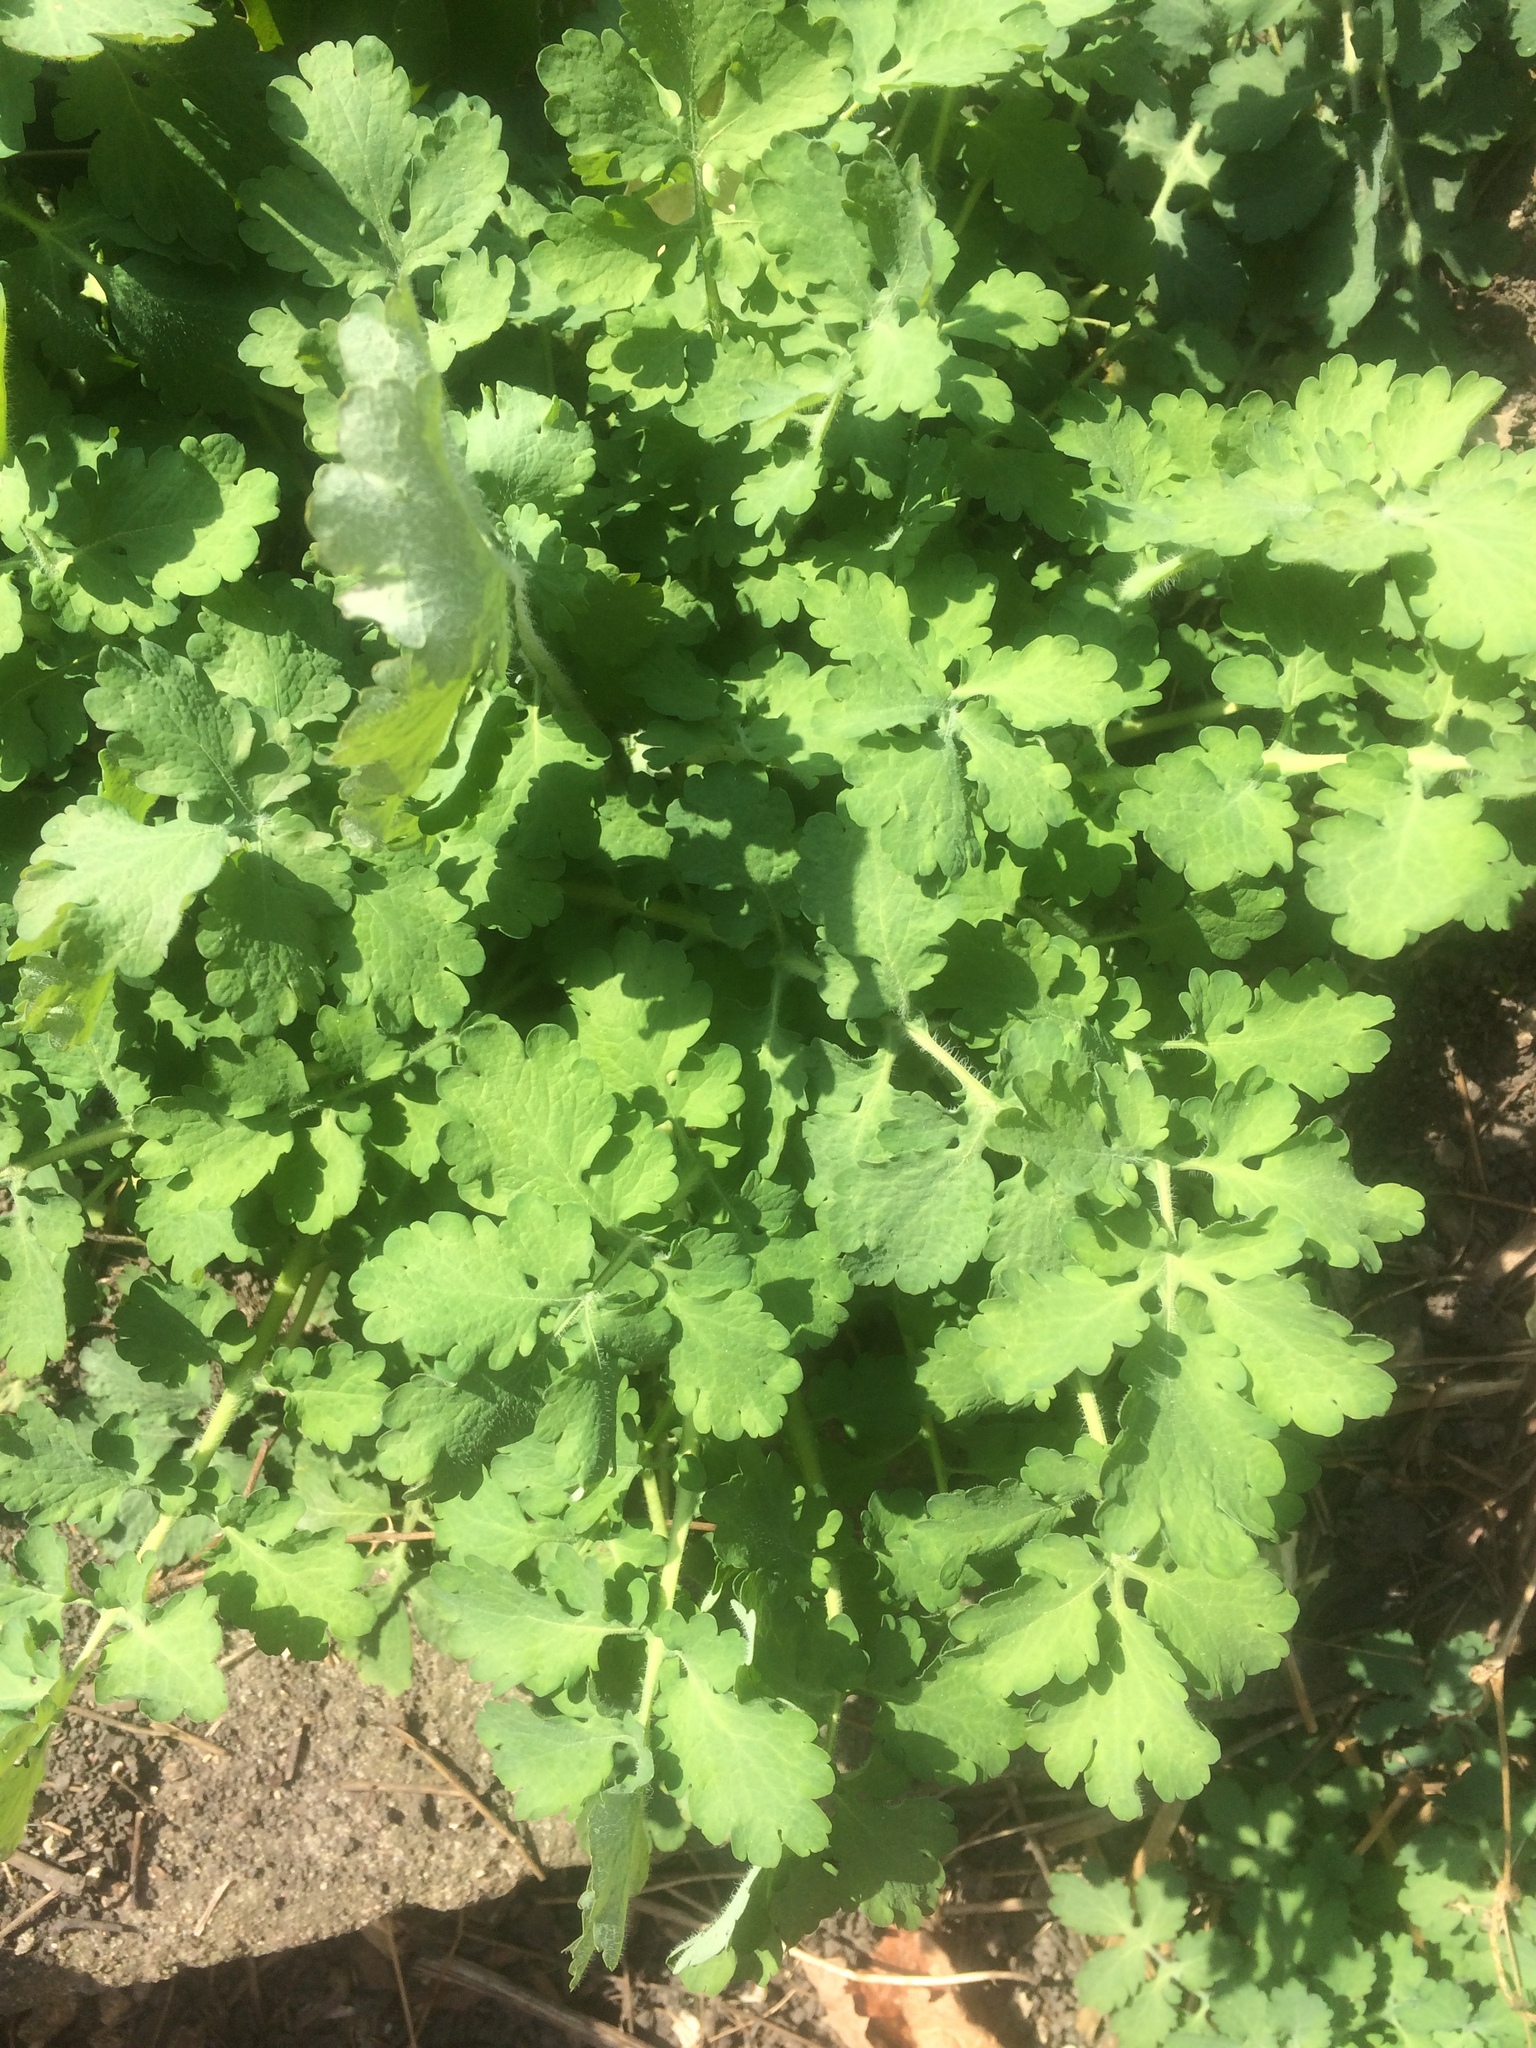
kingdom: Plantae
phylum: Tracheophyta
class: Magnoliopsida
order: Ranunculales
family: Papaveraceae
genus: Chelidonium
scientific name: Chelidonium majus
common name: Greater celandine
